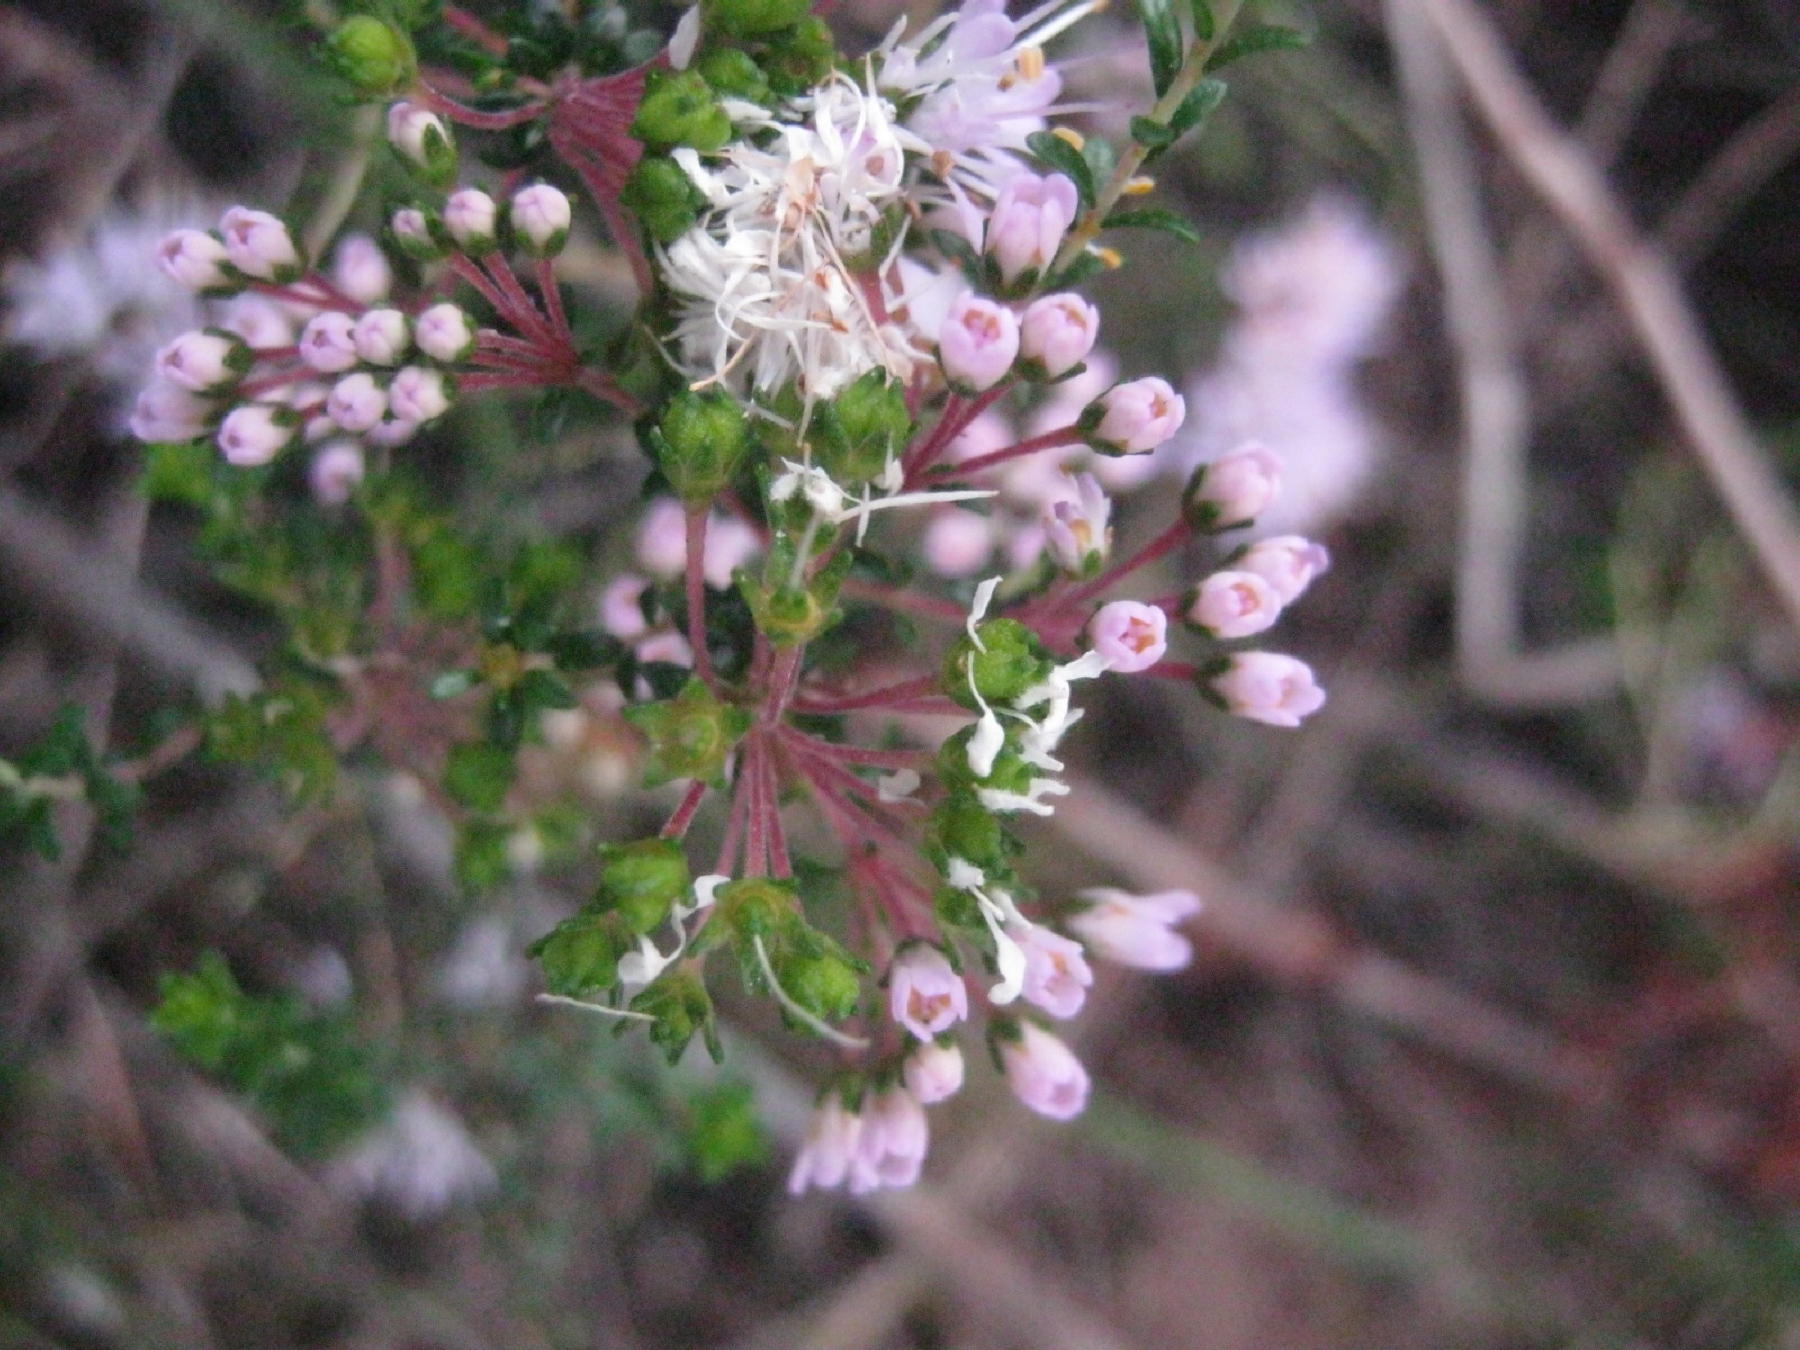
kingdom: Plantae
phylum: Tracheophyta
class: Magnoliopsida
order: Sapindales
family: Rutaceae
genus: Agathosma
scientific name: Agathosma capensis
